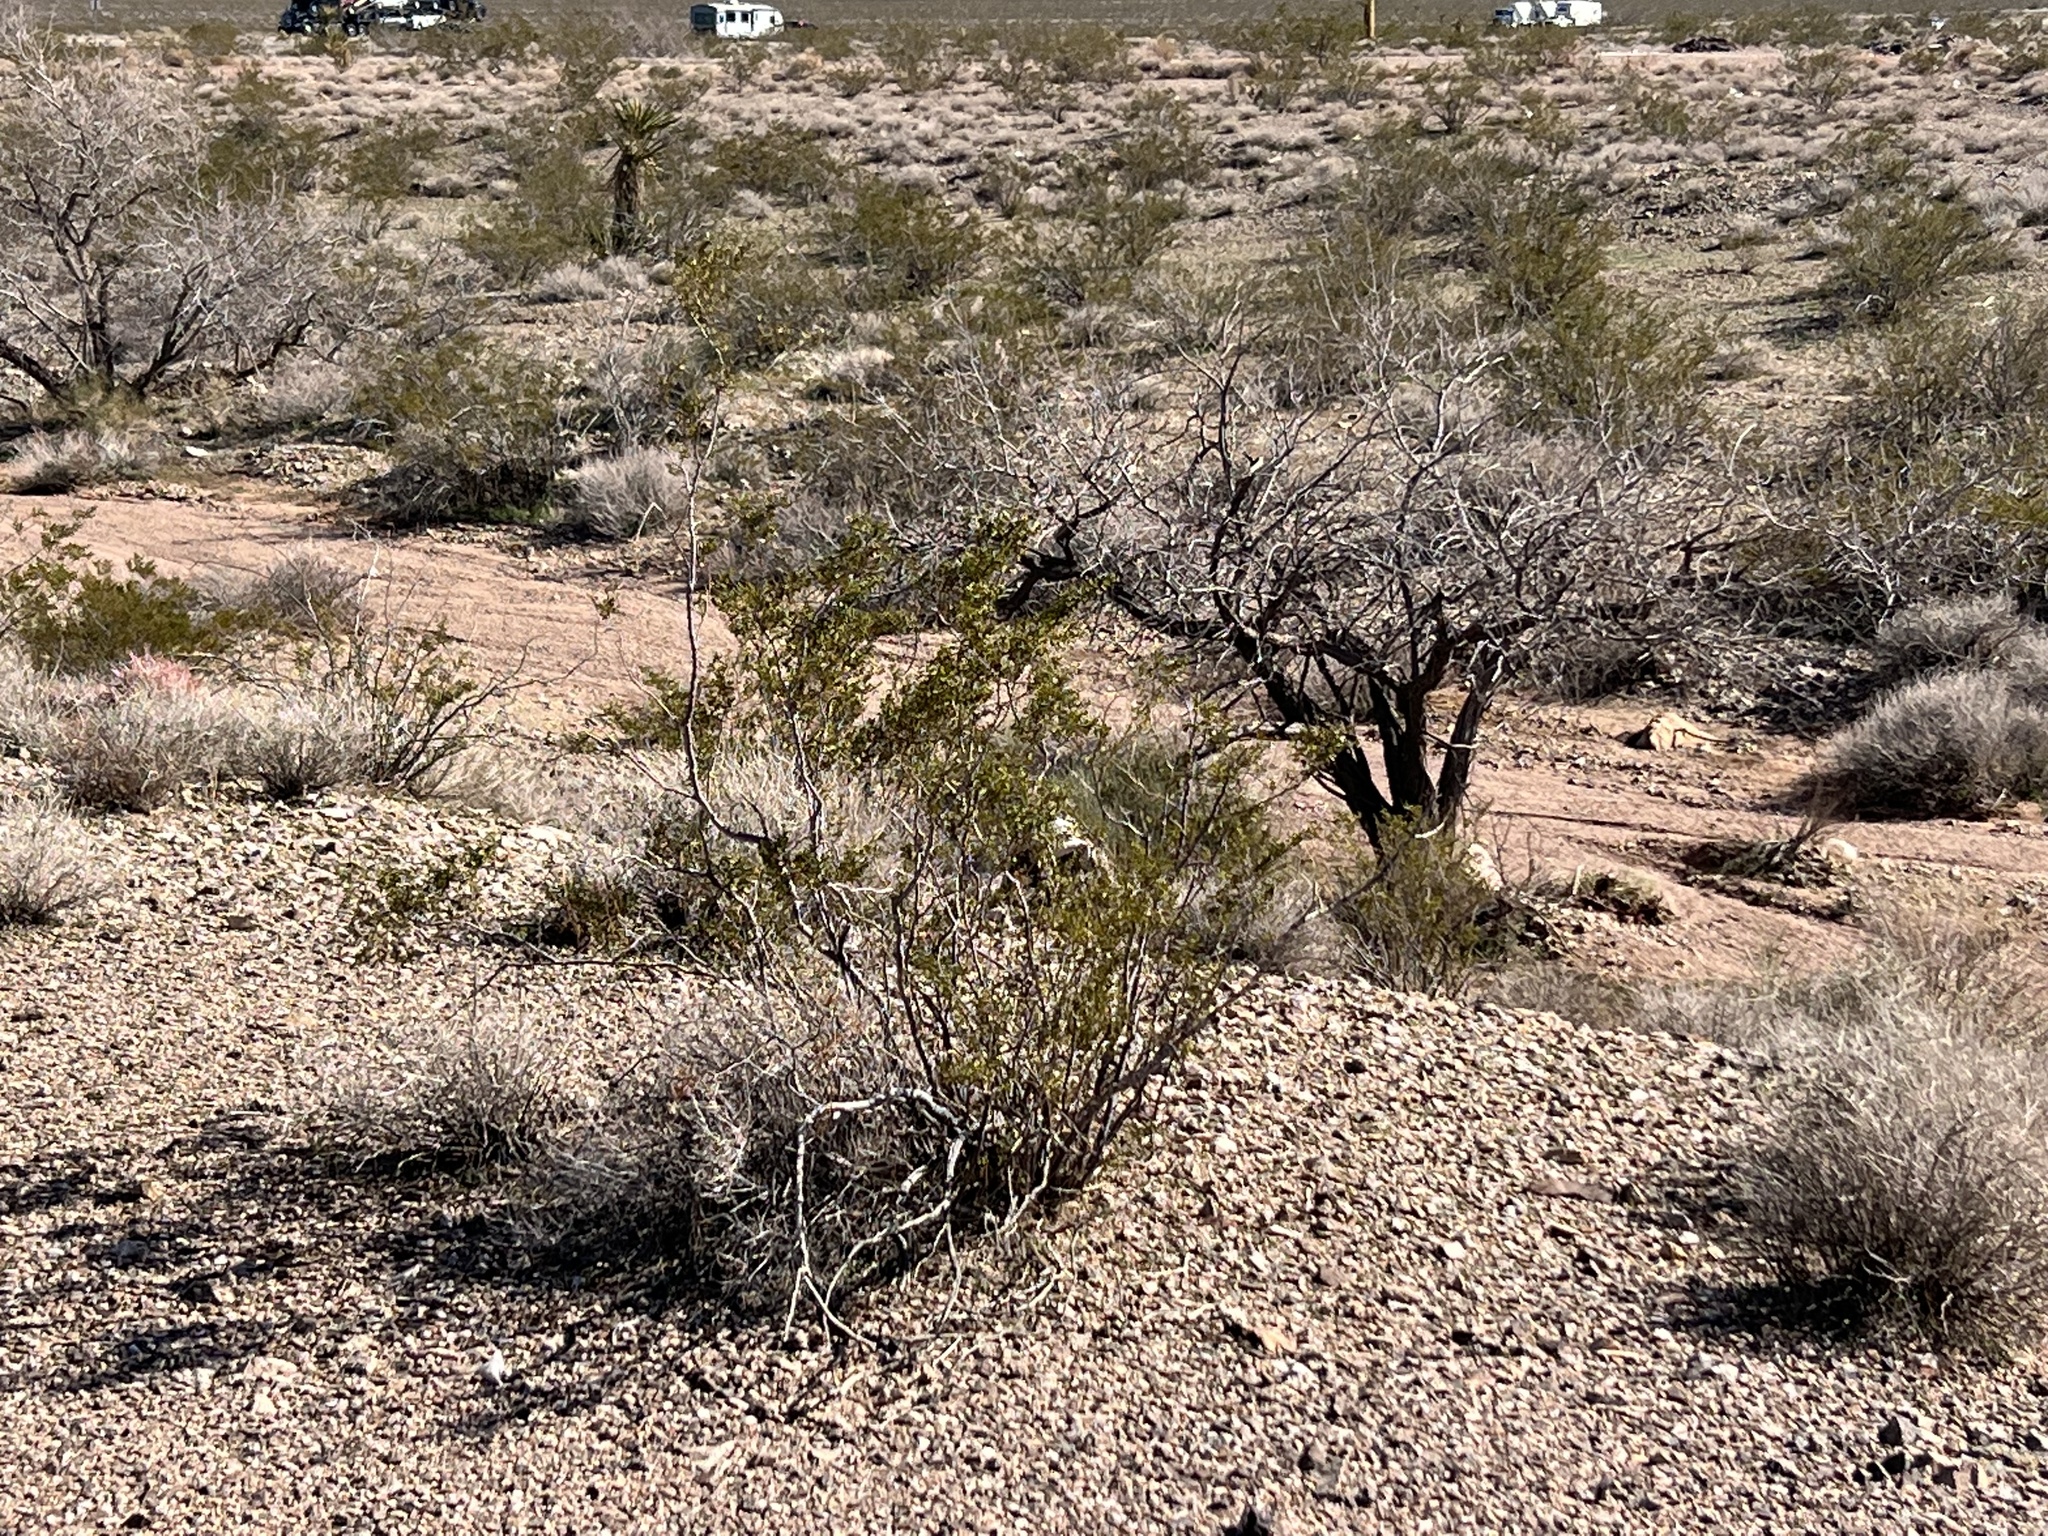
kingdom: Plantae
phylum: Tracheophyta
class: Magnoliopsida
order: Zygophyllales
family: Zygophyllaceae
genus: Larrea
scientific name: Larrea tridentata
